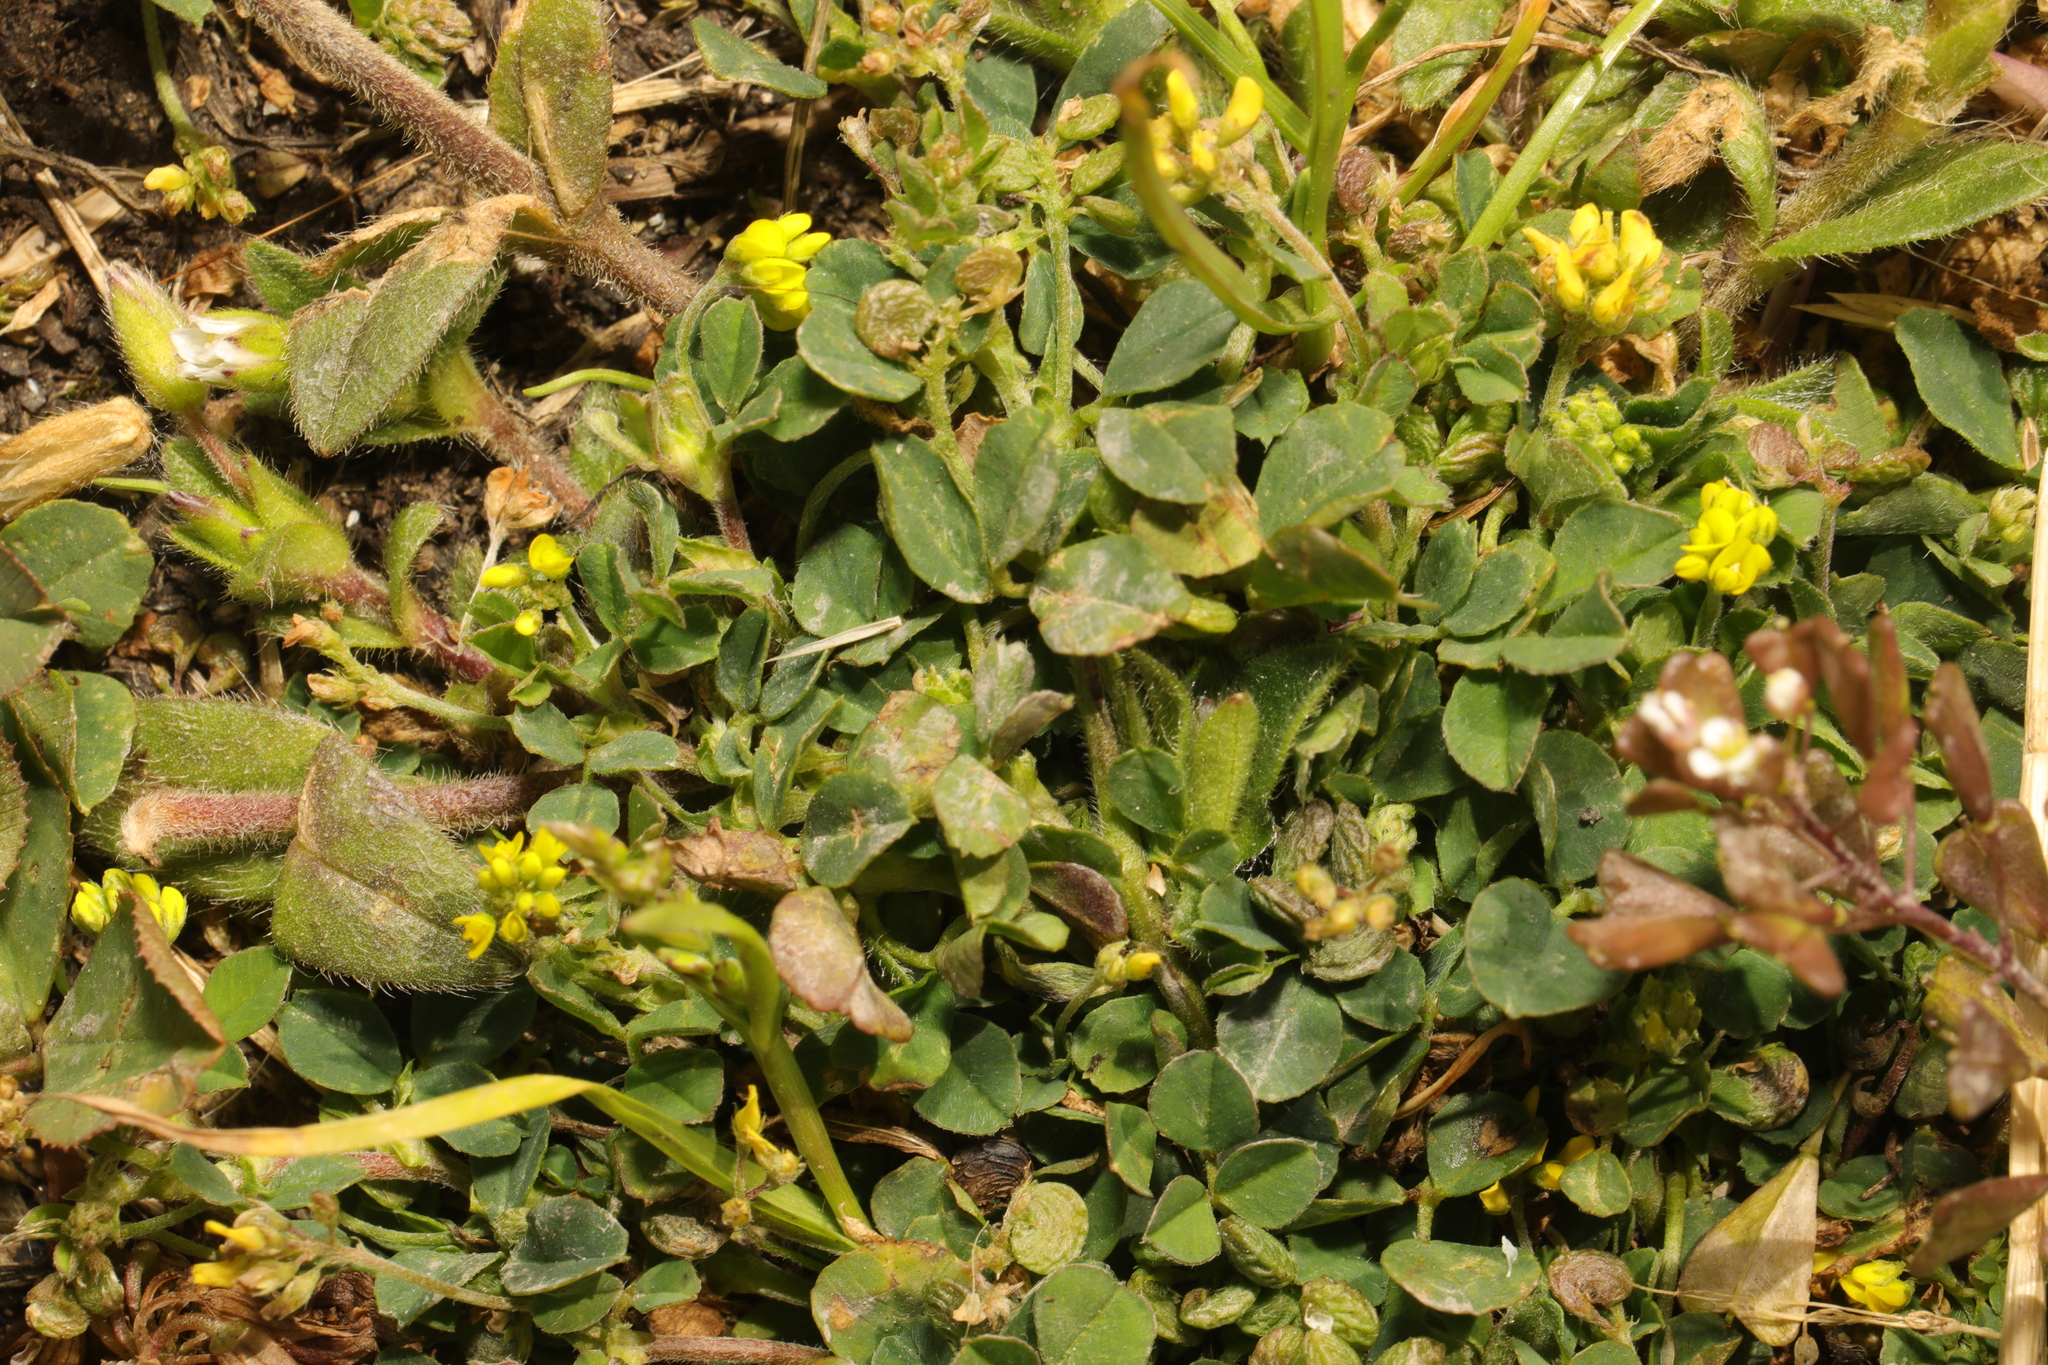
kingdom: Plantae
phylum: Tracheophyta
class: Magnoliopsida
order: Fabales
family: Fabaceae
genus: Medicago
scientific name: Medicago lupulina
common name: Black medick
